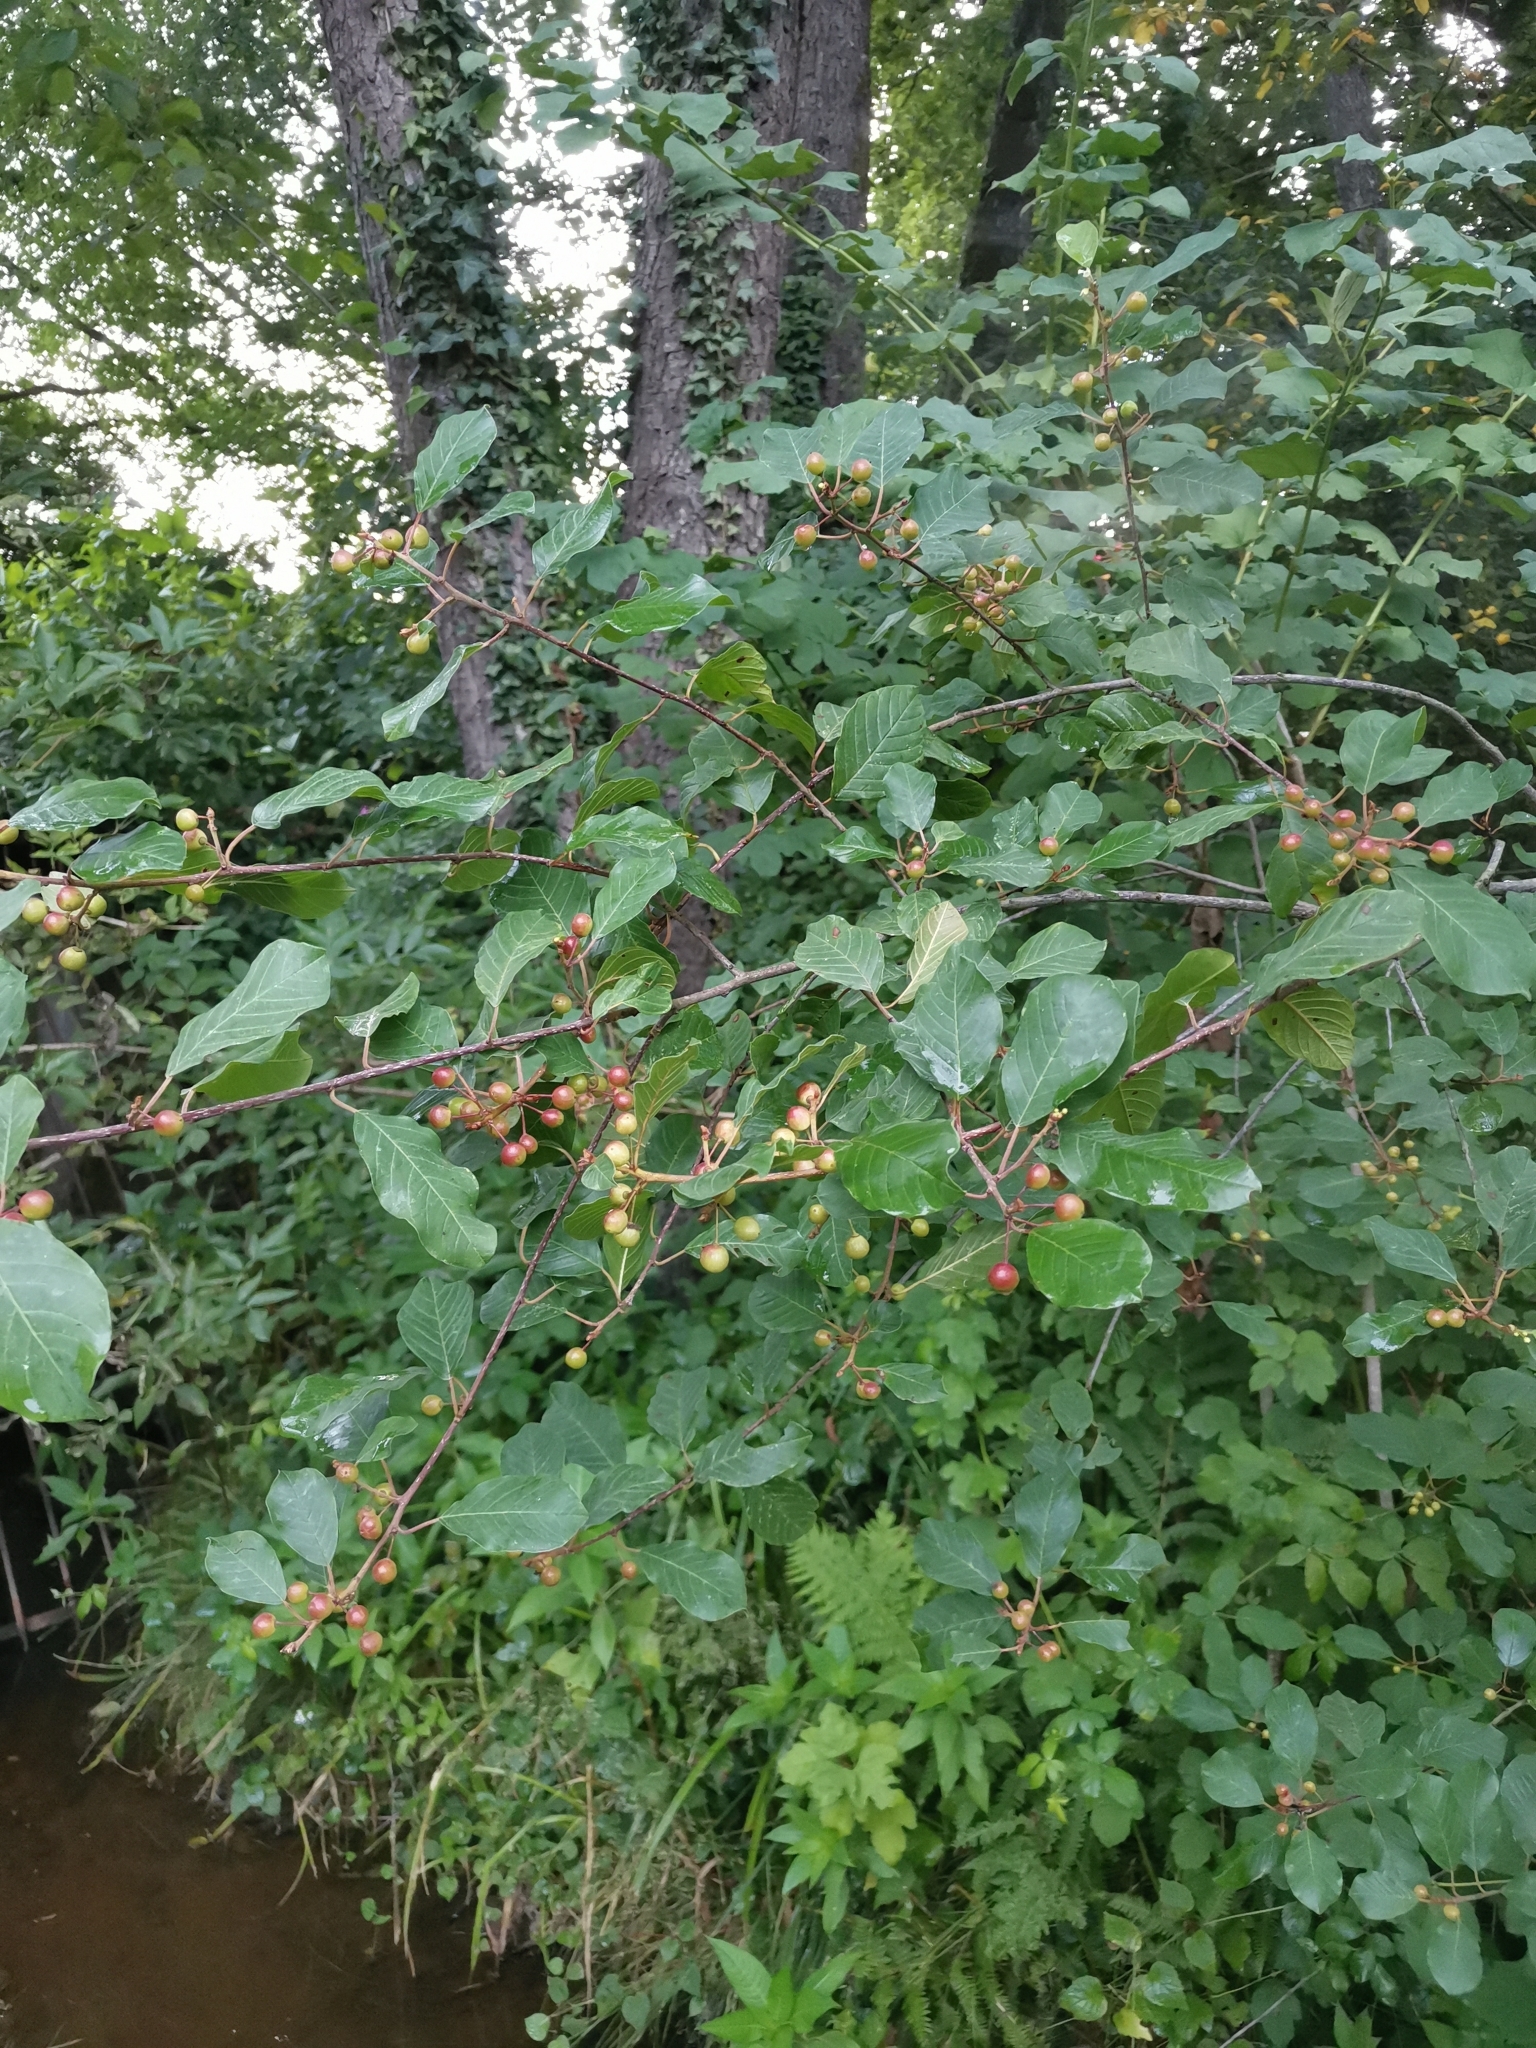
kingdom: Plantae
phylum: Tracheophyta
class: Magnoliopsida
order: Rosales
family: Rhamnaceae
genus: Frangula
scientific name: Frangula alnus
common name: Alder buckthorn
